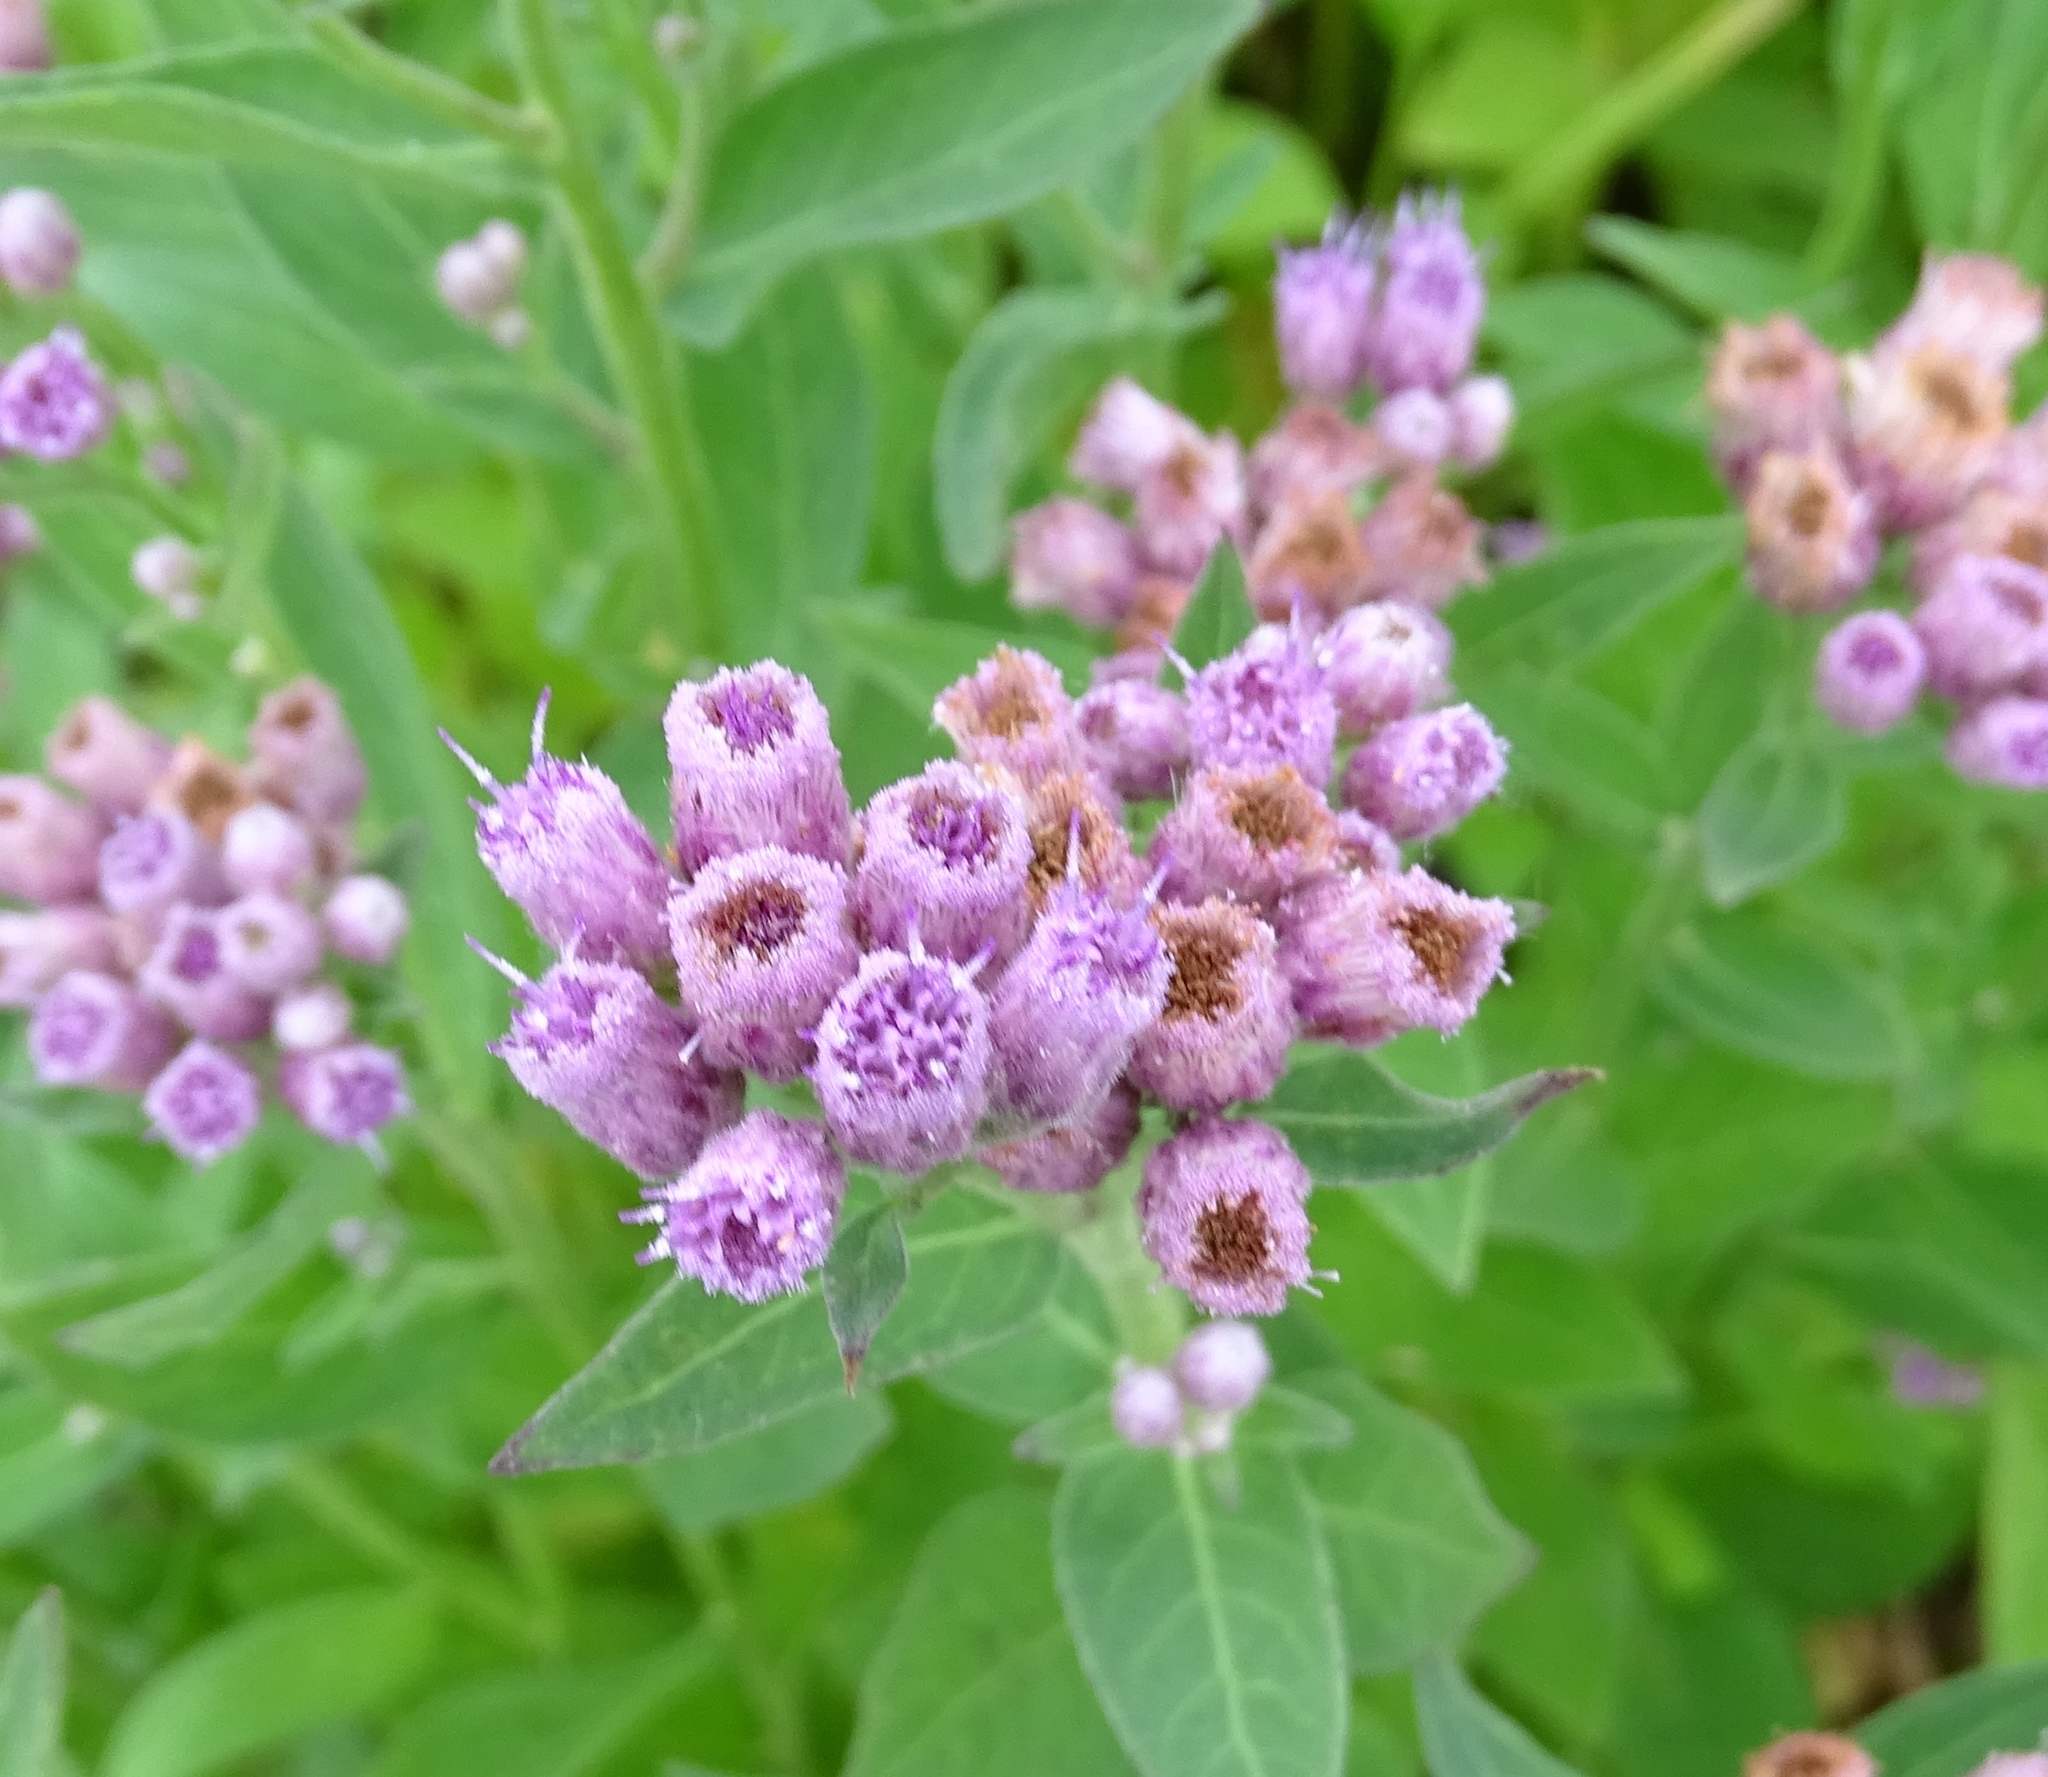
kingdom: Plantae
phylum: Tracheophyta
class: Magnoliopsida
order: Asterales
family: Asteraceae
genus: Pluchea
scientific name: Pluchea odorata
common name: Saltmarsh fleabane
